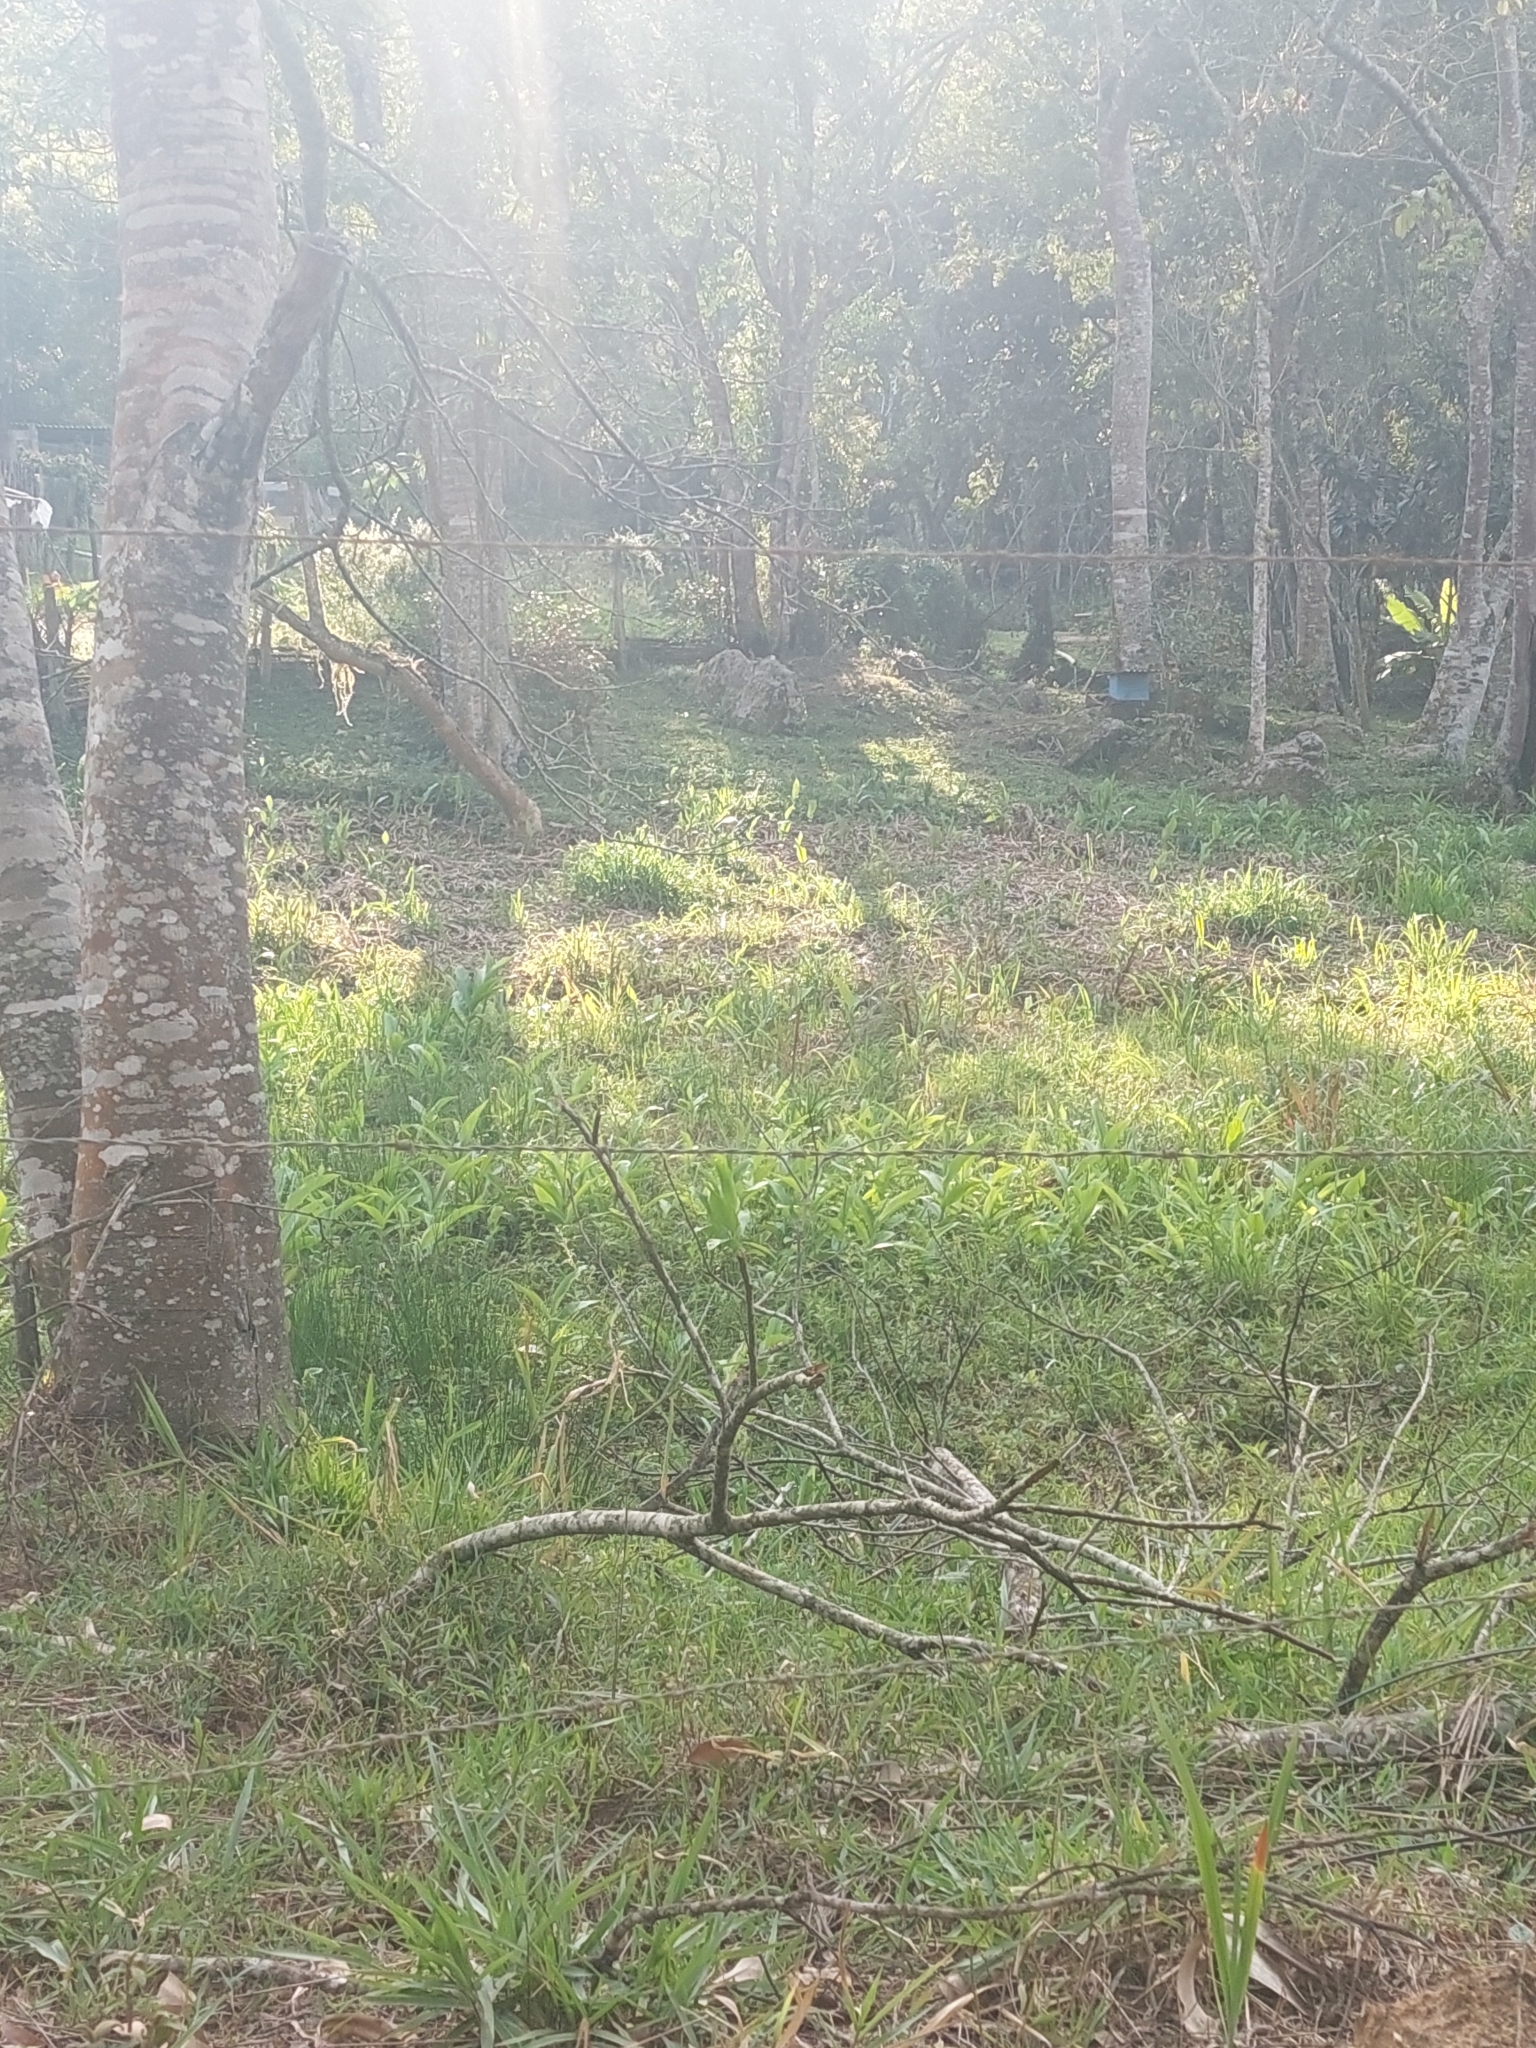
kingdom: Plantae
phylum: Tracheophyta
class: Liliopsida
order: Zingiberales
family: Zingiberaceae
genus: Hedychium
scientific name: Hedychium coronarium
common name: White garland-lily
